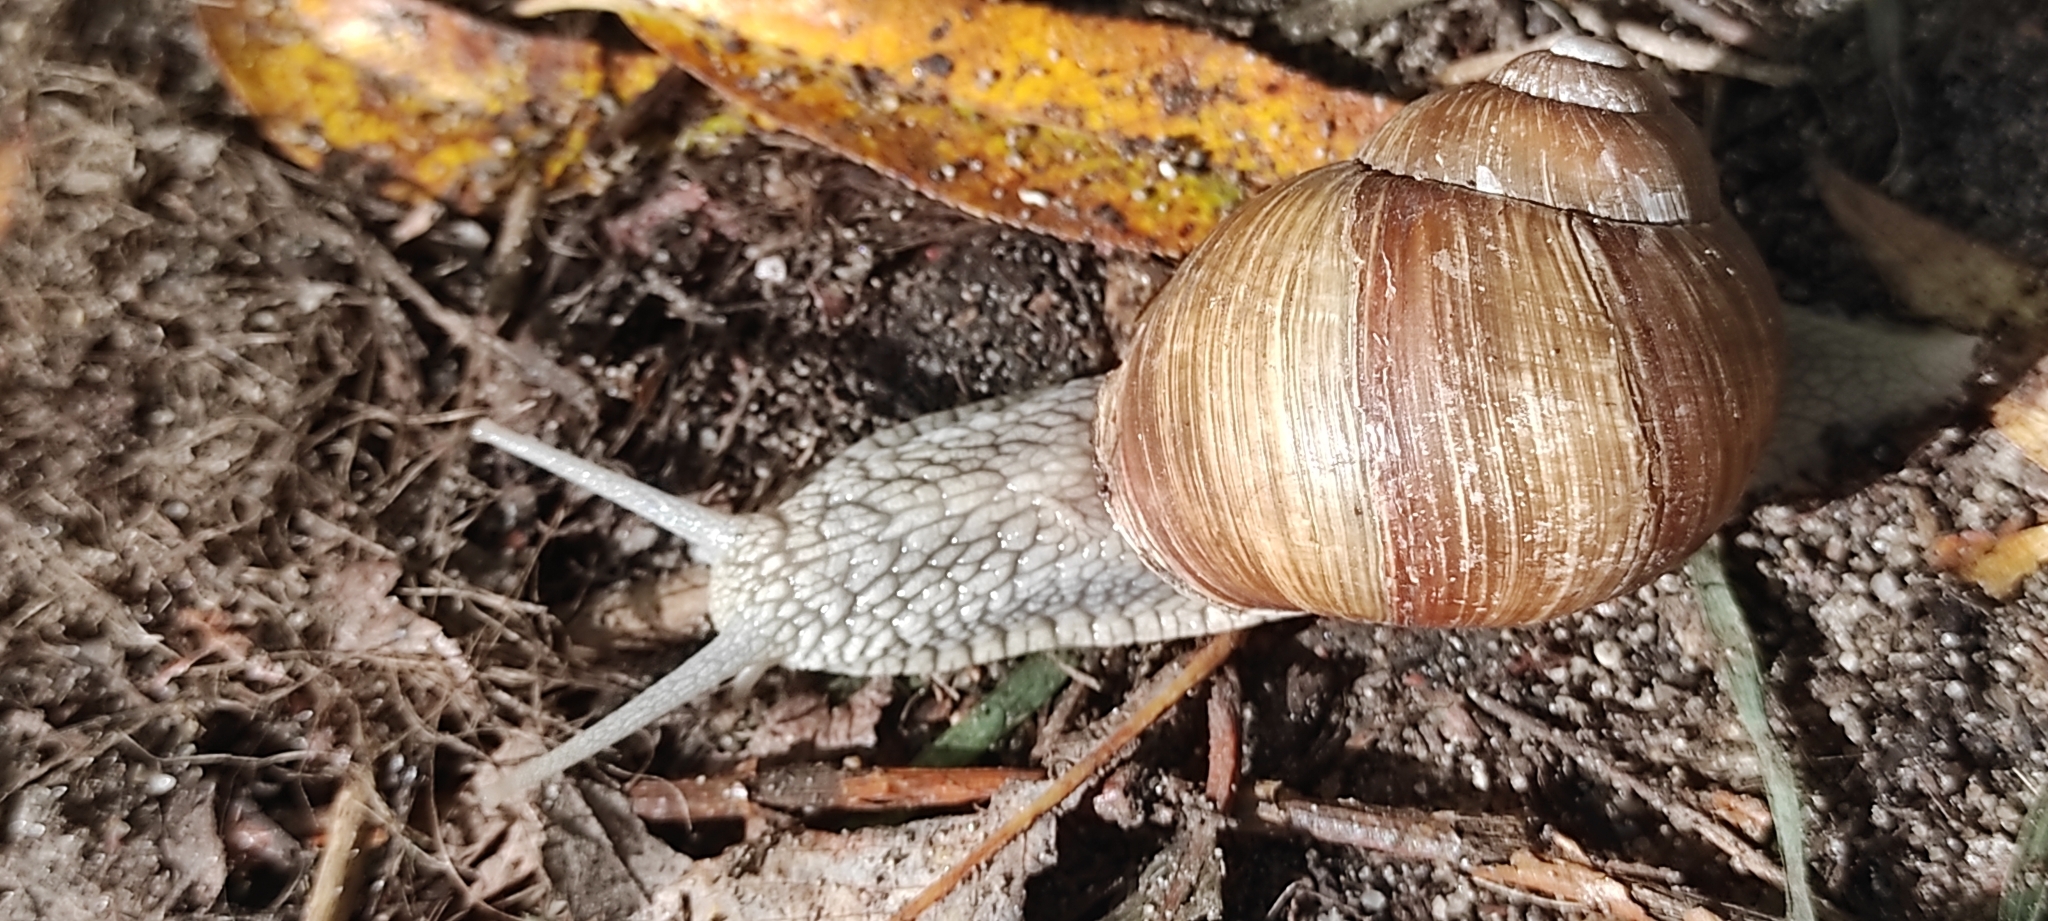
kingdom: Animalia
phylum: Mollusca
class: Gastropoda
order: Stylommatophora
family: Helicidae
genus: Helix
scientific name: Helix pomatia
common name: Roman snail
